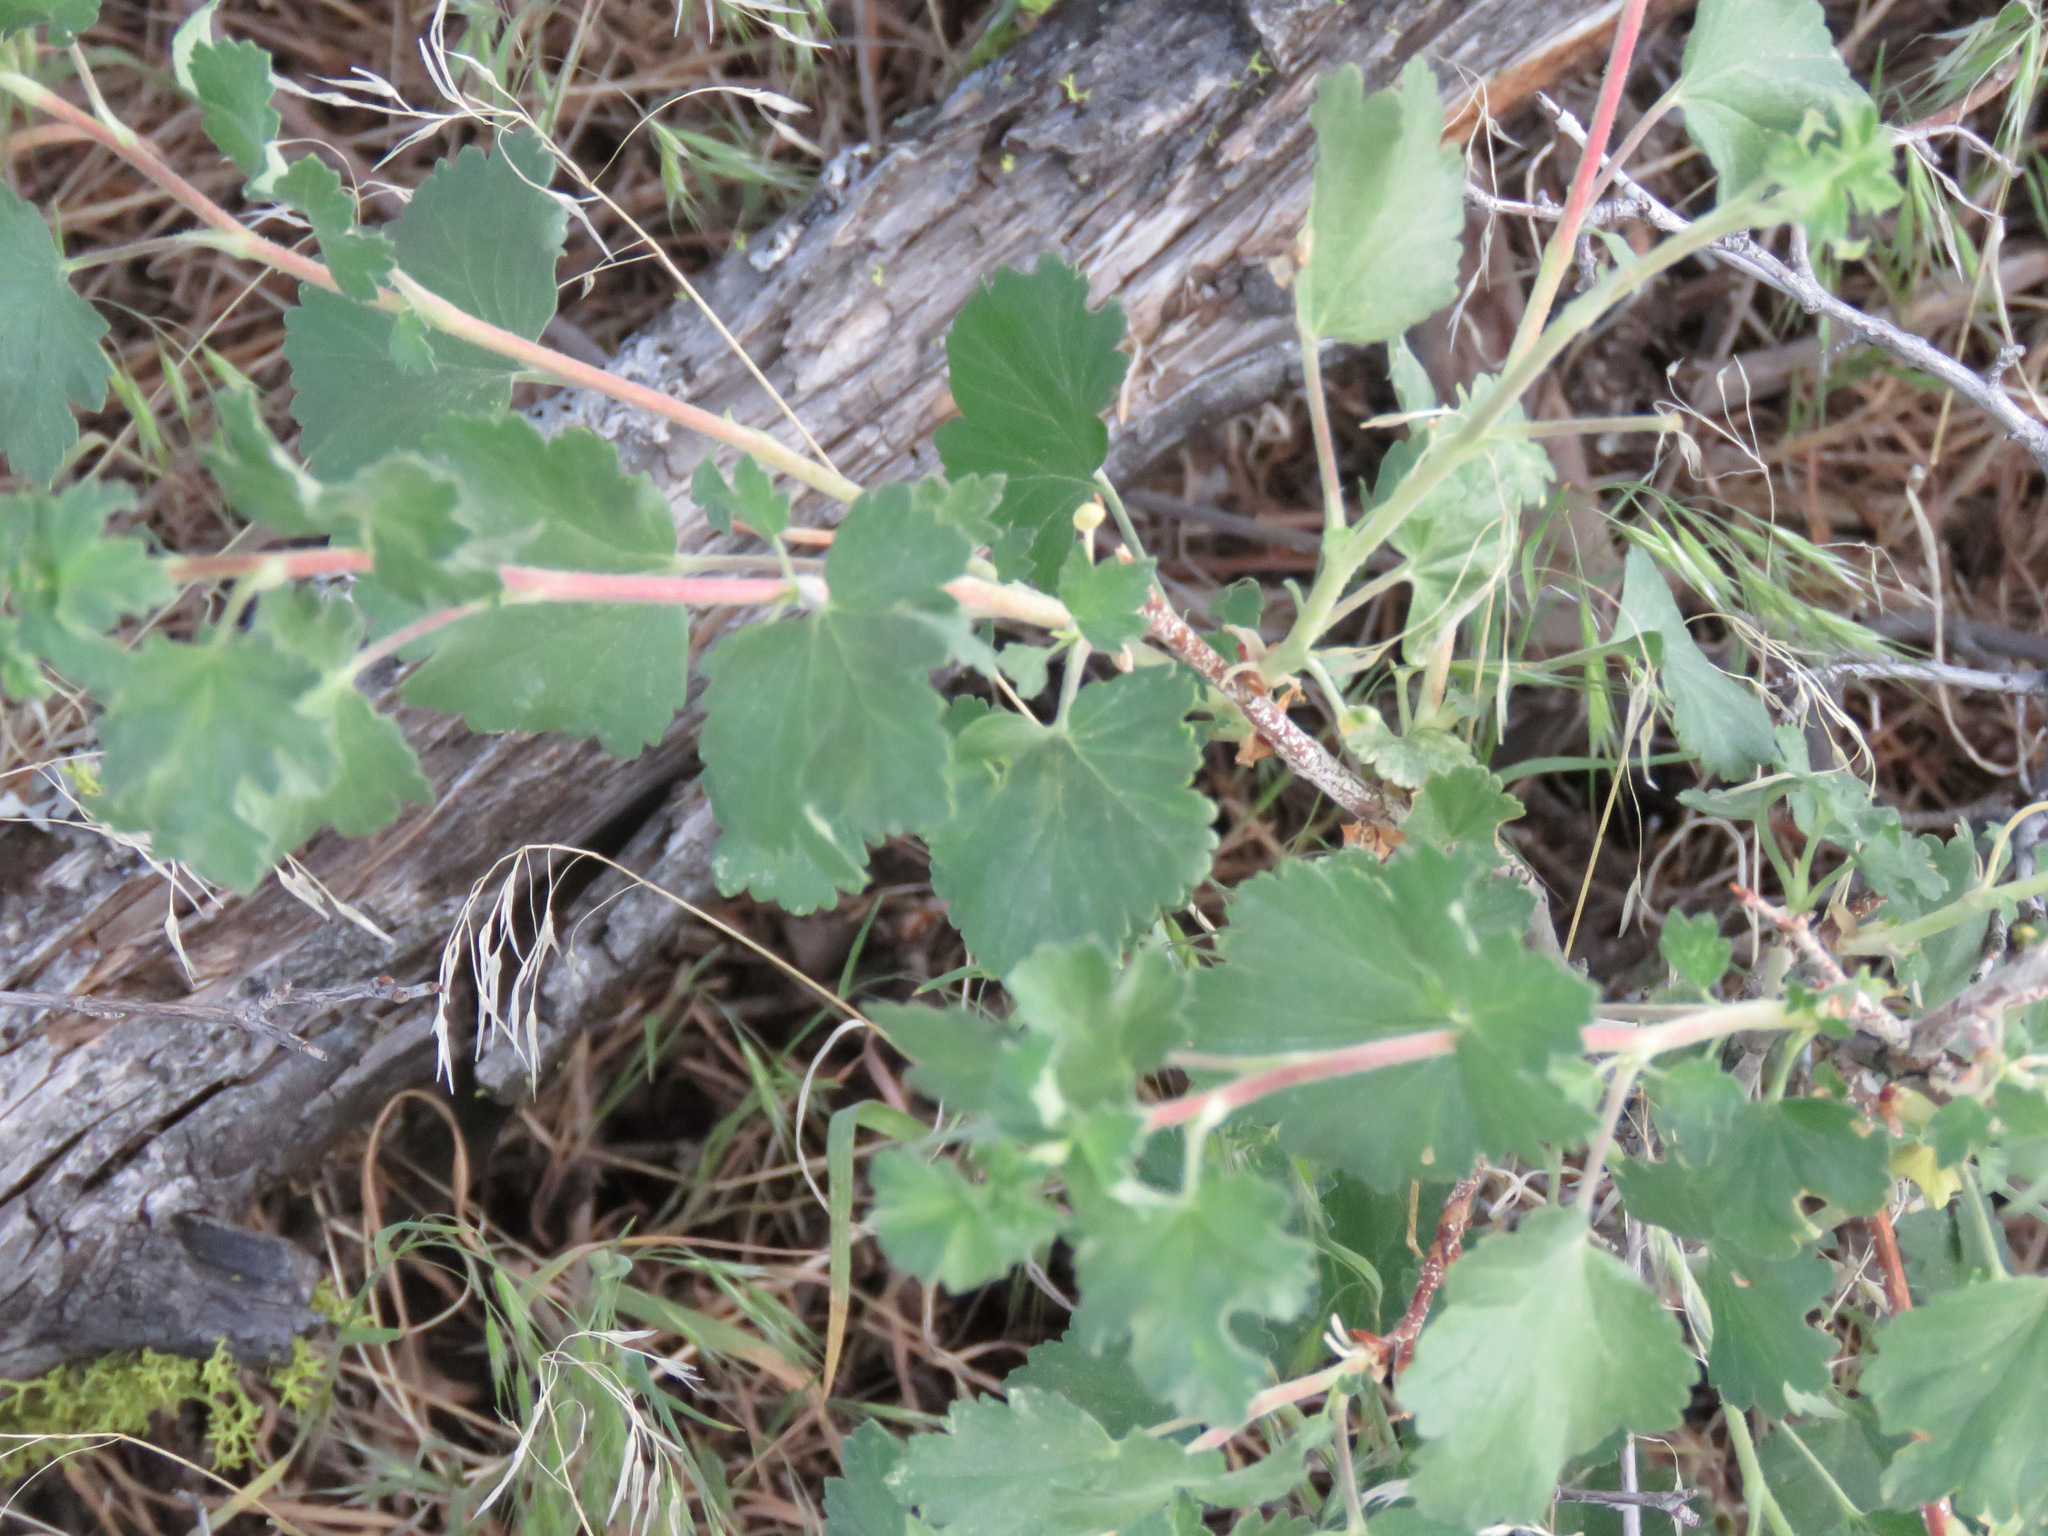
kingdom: Plantae
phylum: Tracheophyta
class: Magnoliopsida
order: Saxifragales
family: Grossulariaceae
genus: Ribes
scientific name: Ribes cereum
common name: Wax currant
